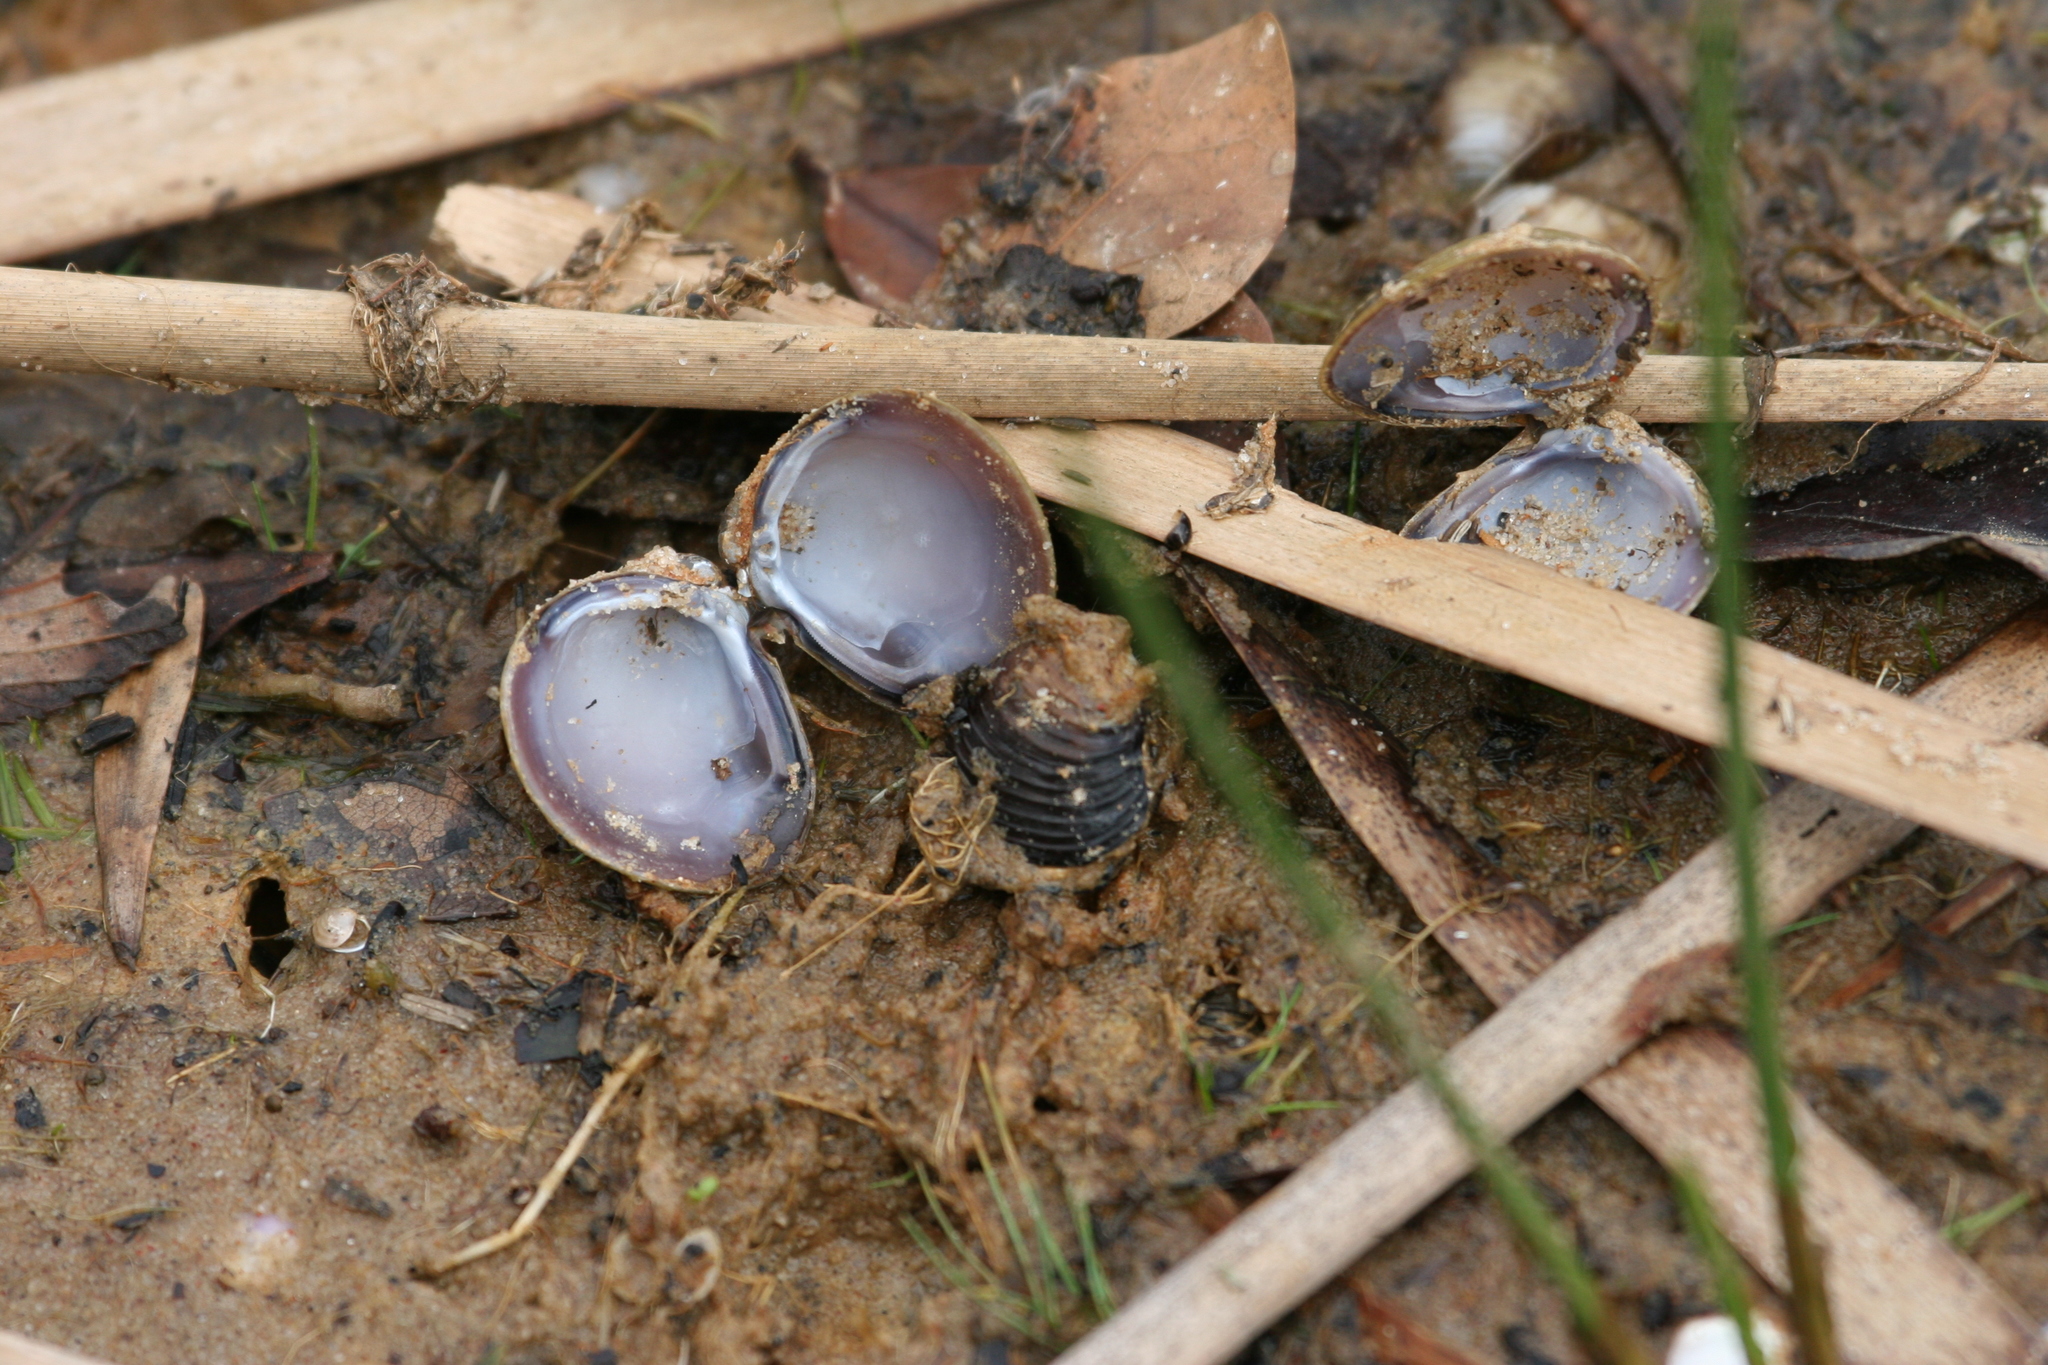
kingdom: Animalia
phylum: Mollusca
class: Bivalvia
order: Venerida
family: Cyrenidae
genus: Corbicula
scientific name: Corbicula fluminea
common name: Asian clam
